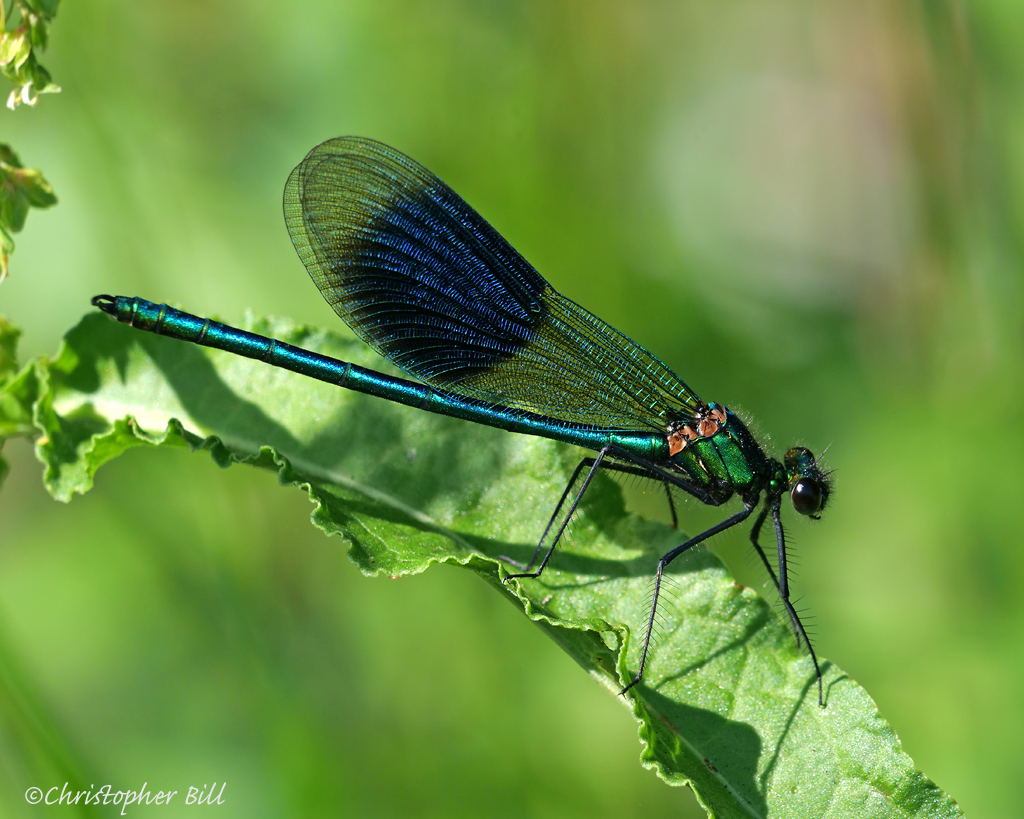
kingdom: Animalia
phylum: Arthropoda
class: Insecta
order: Odonata
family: Calopterygidae
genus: Calopteryx
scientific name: Calopteryx splendens
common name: Banded demoiselle
